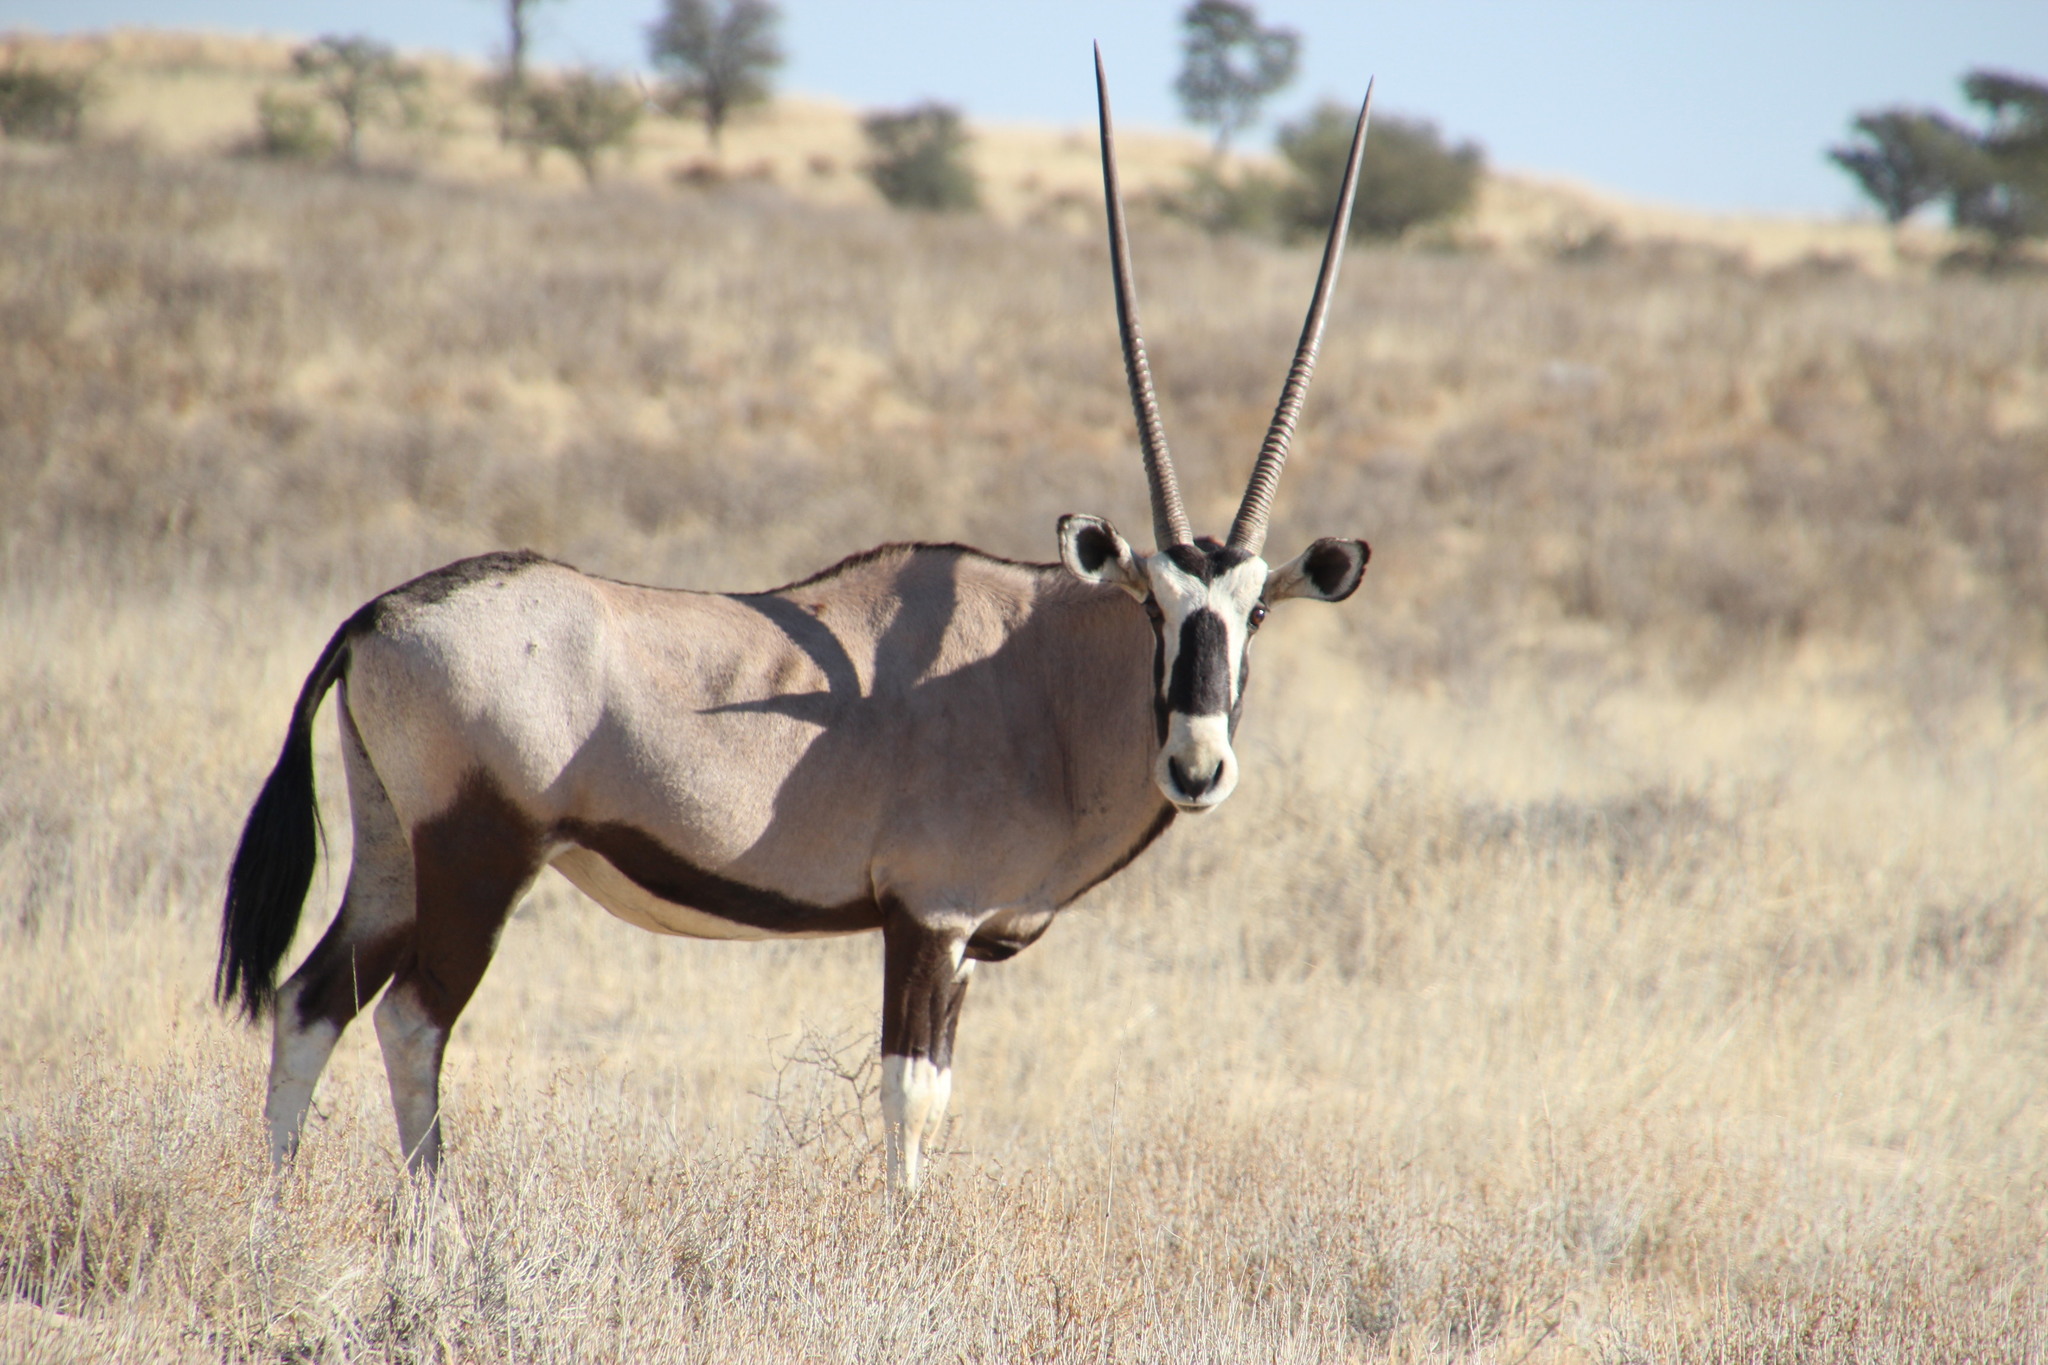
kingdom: Animalia
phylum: Chordata
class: Mammalia
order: Artiodactyla
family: Bovidae
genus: Oryx
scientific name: Oryx gazella
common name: Gemsbok
